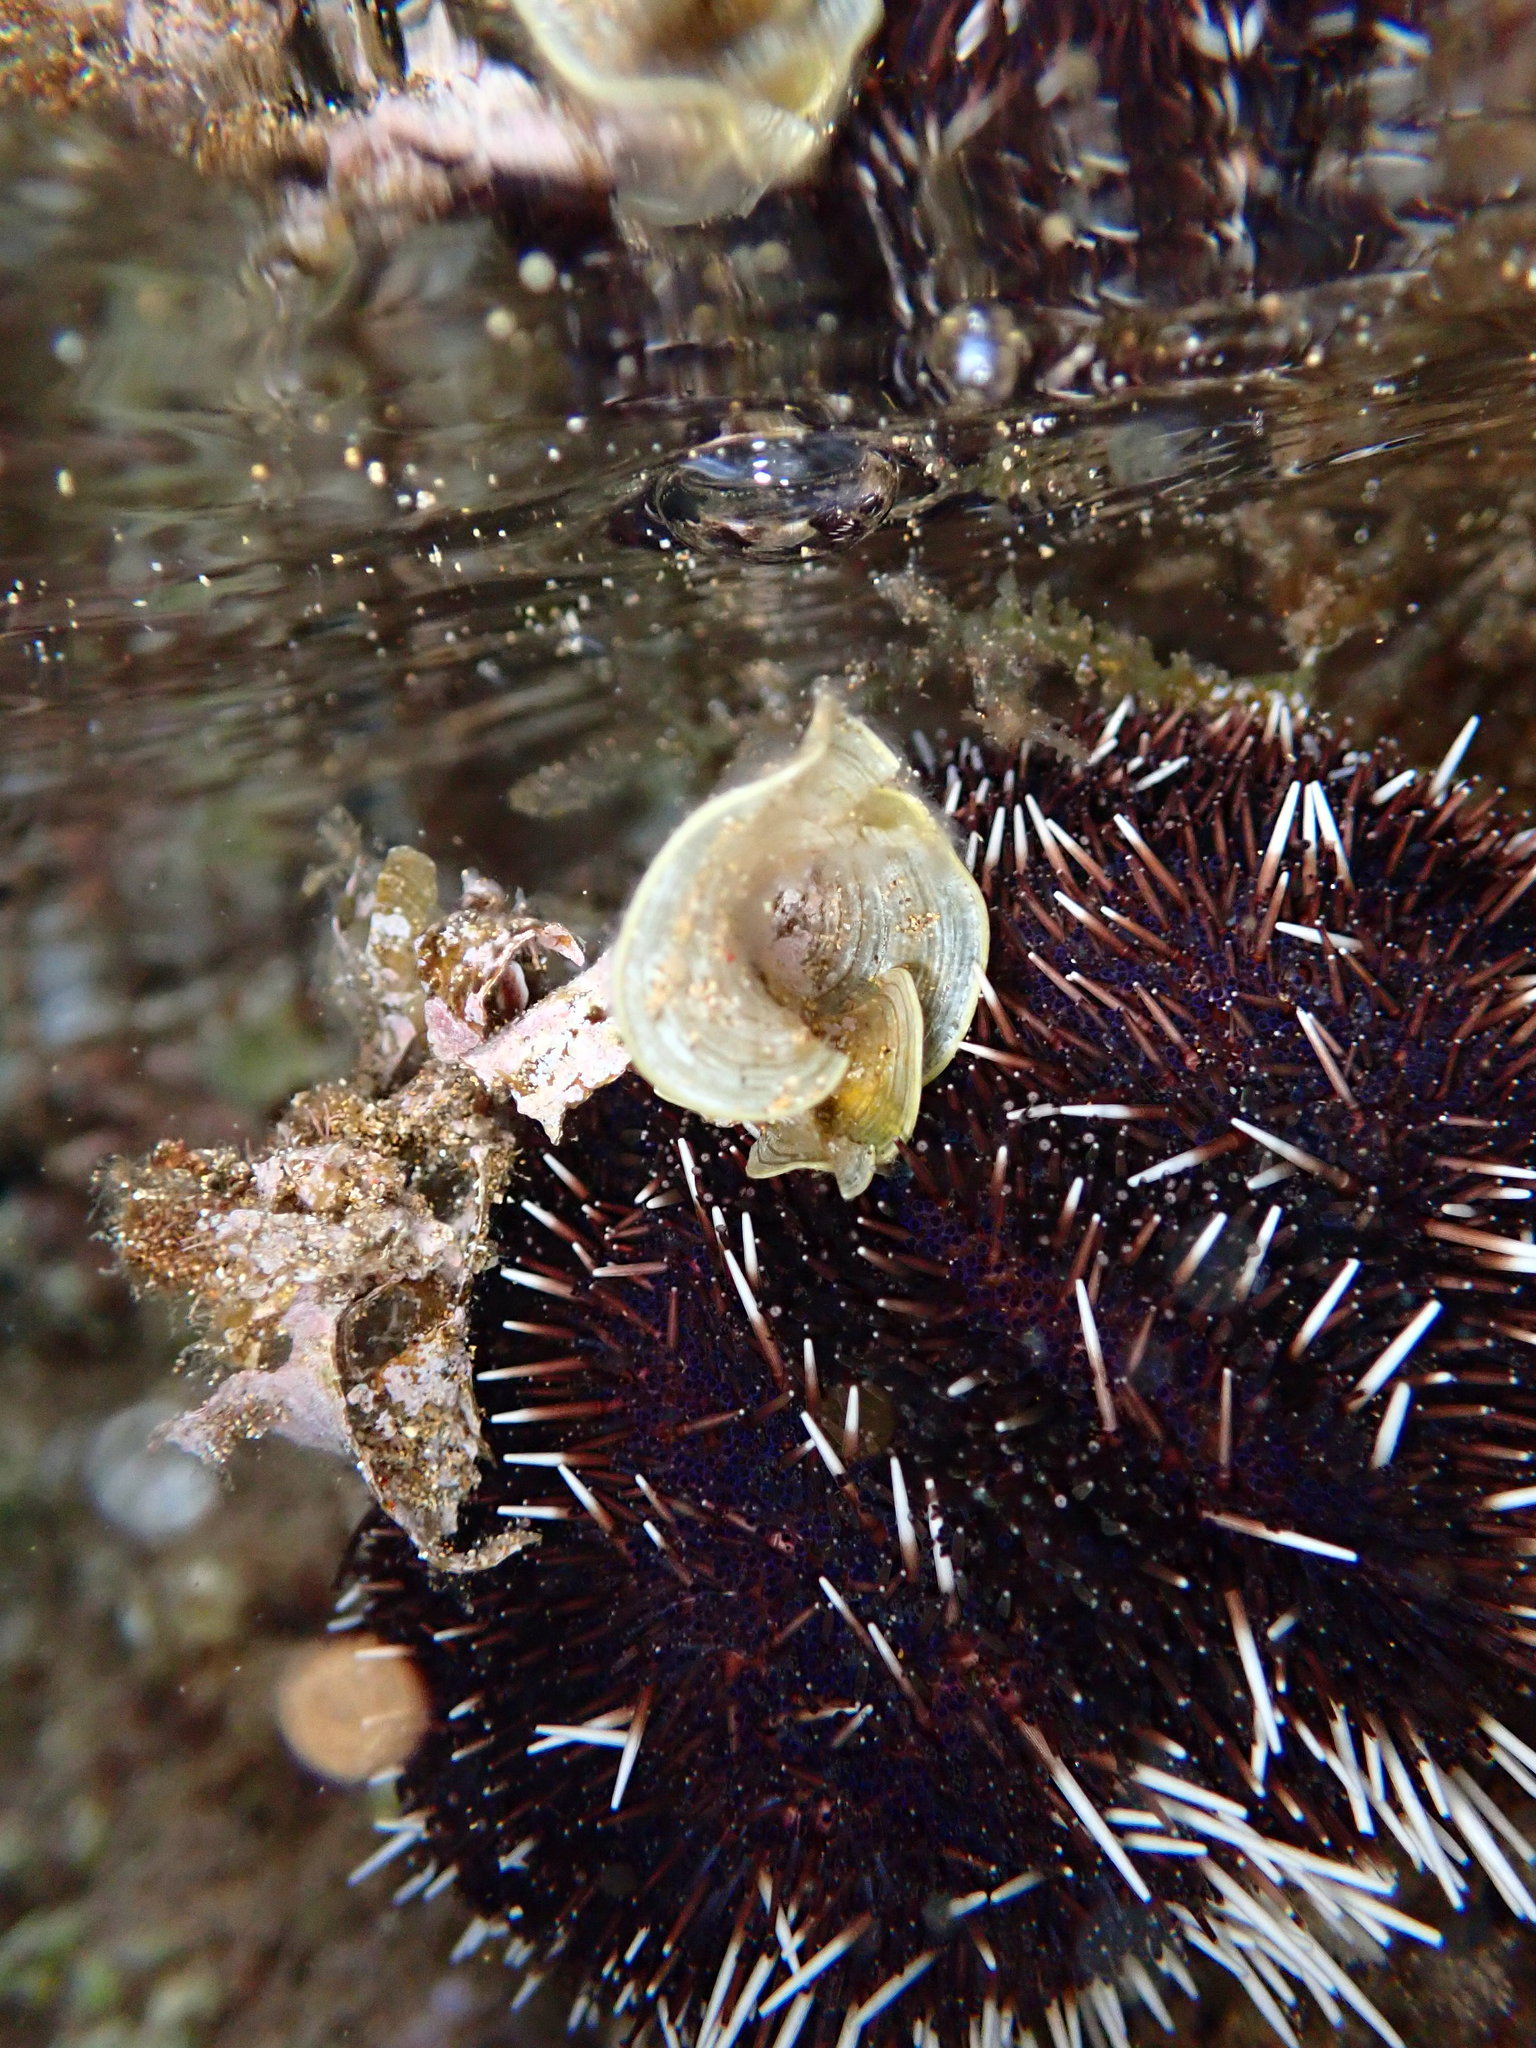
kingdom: Animalia
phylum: Echinodermata
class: Echinoidea
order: Camarodonta
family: Toxopneustidae
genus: Tripneustes
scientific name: Tripneustes gratilla
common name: Bischofsmützenseeigel
